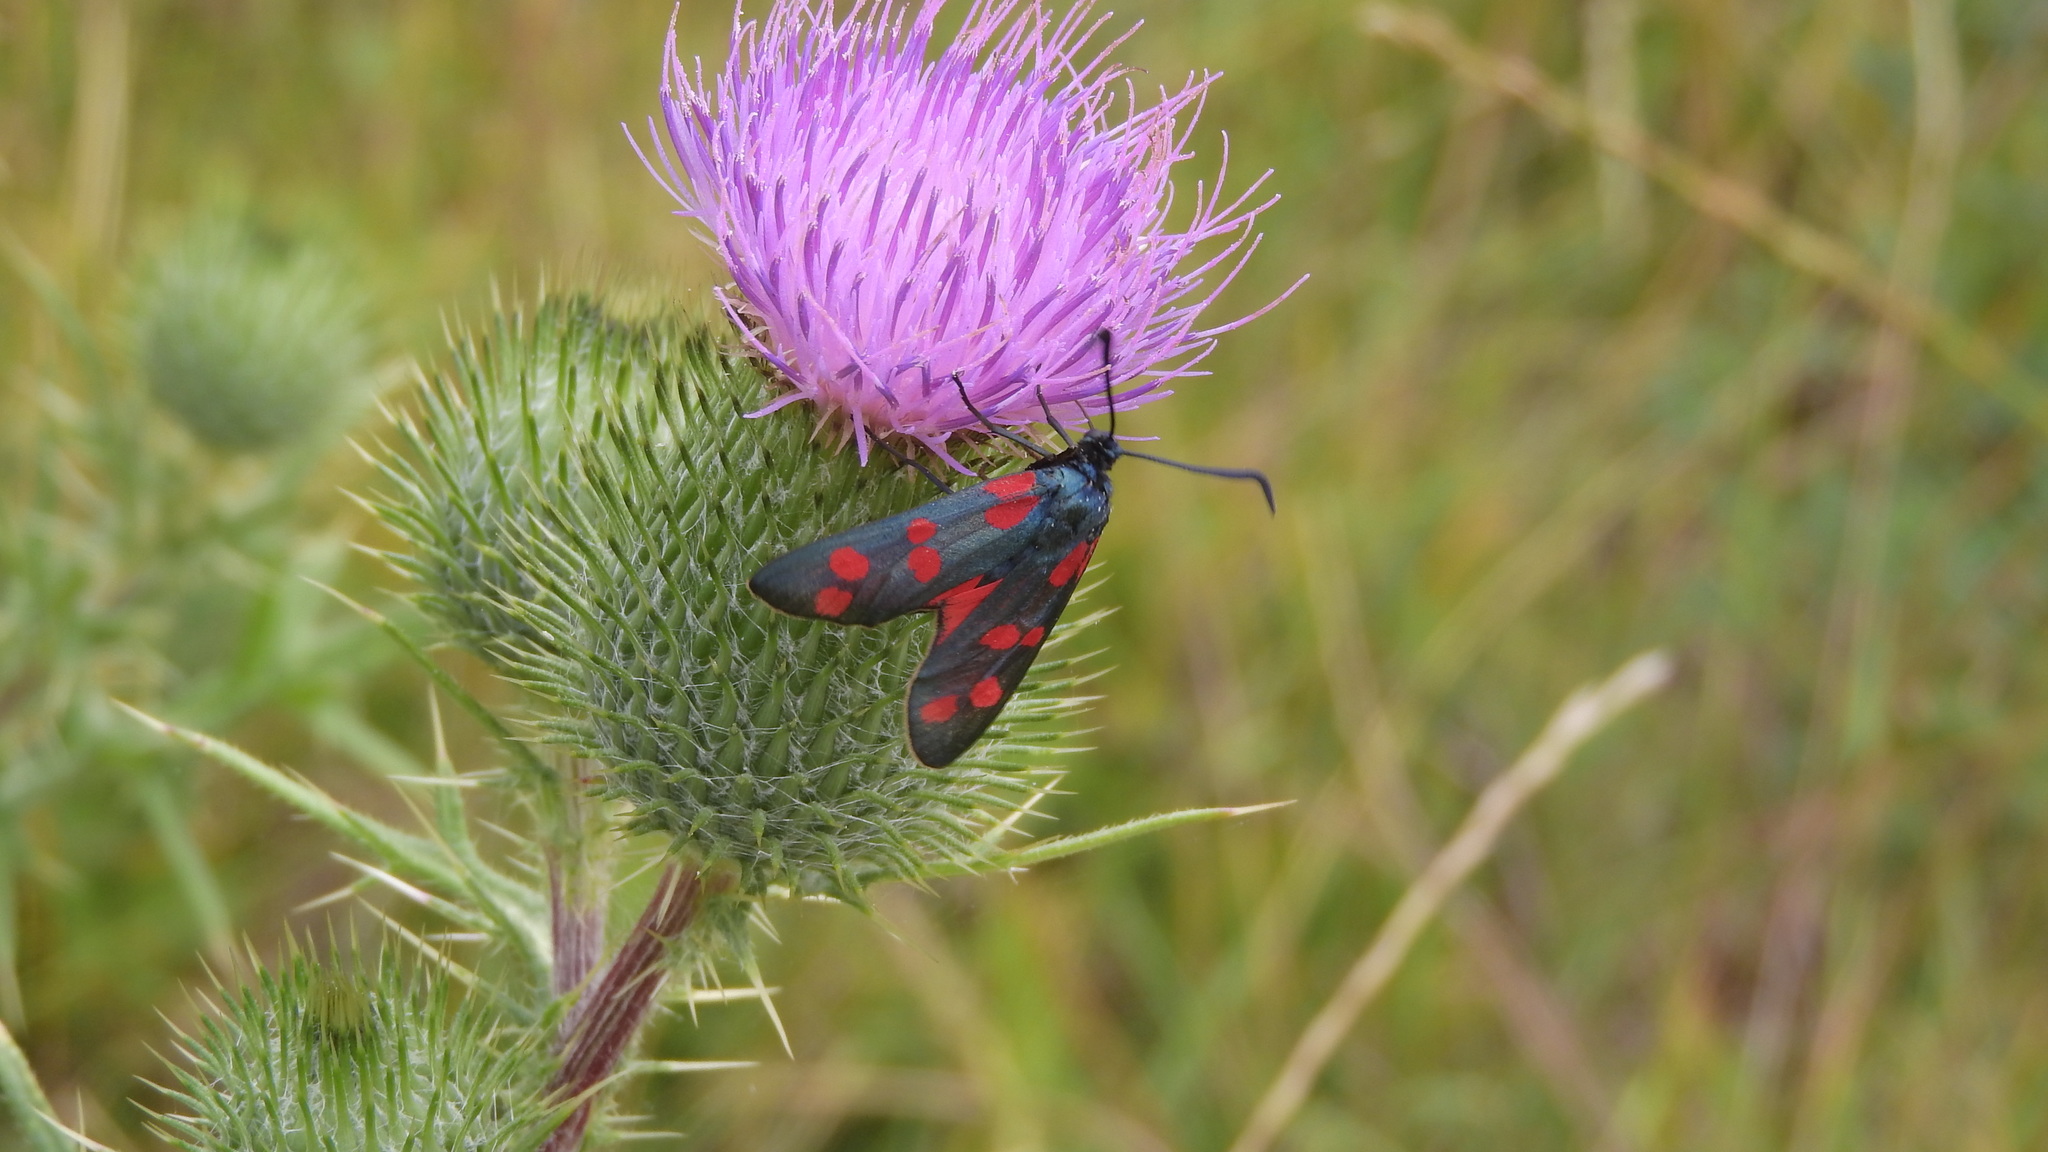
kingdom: Animalia
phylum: Arthropoda
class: Insecta
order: Lepidoptera
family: Zygaenidae
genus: Zygaena
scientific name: Zygaena filipendulae
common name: Six-spot burnet
